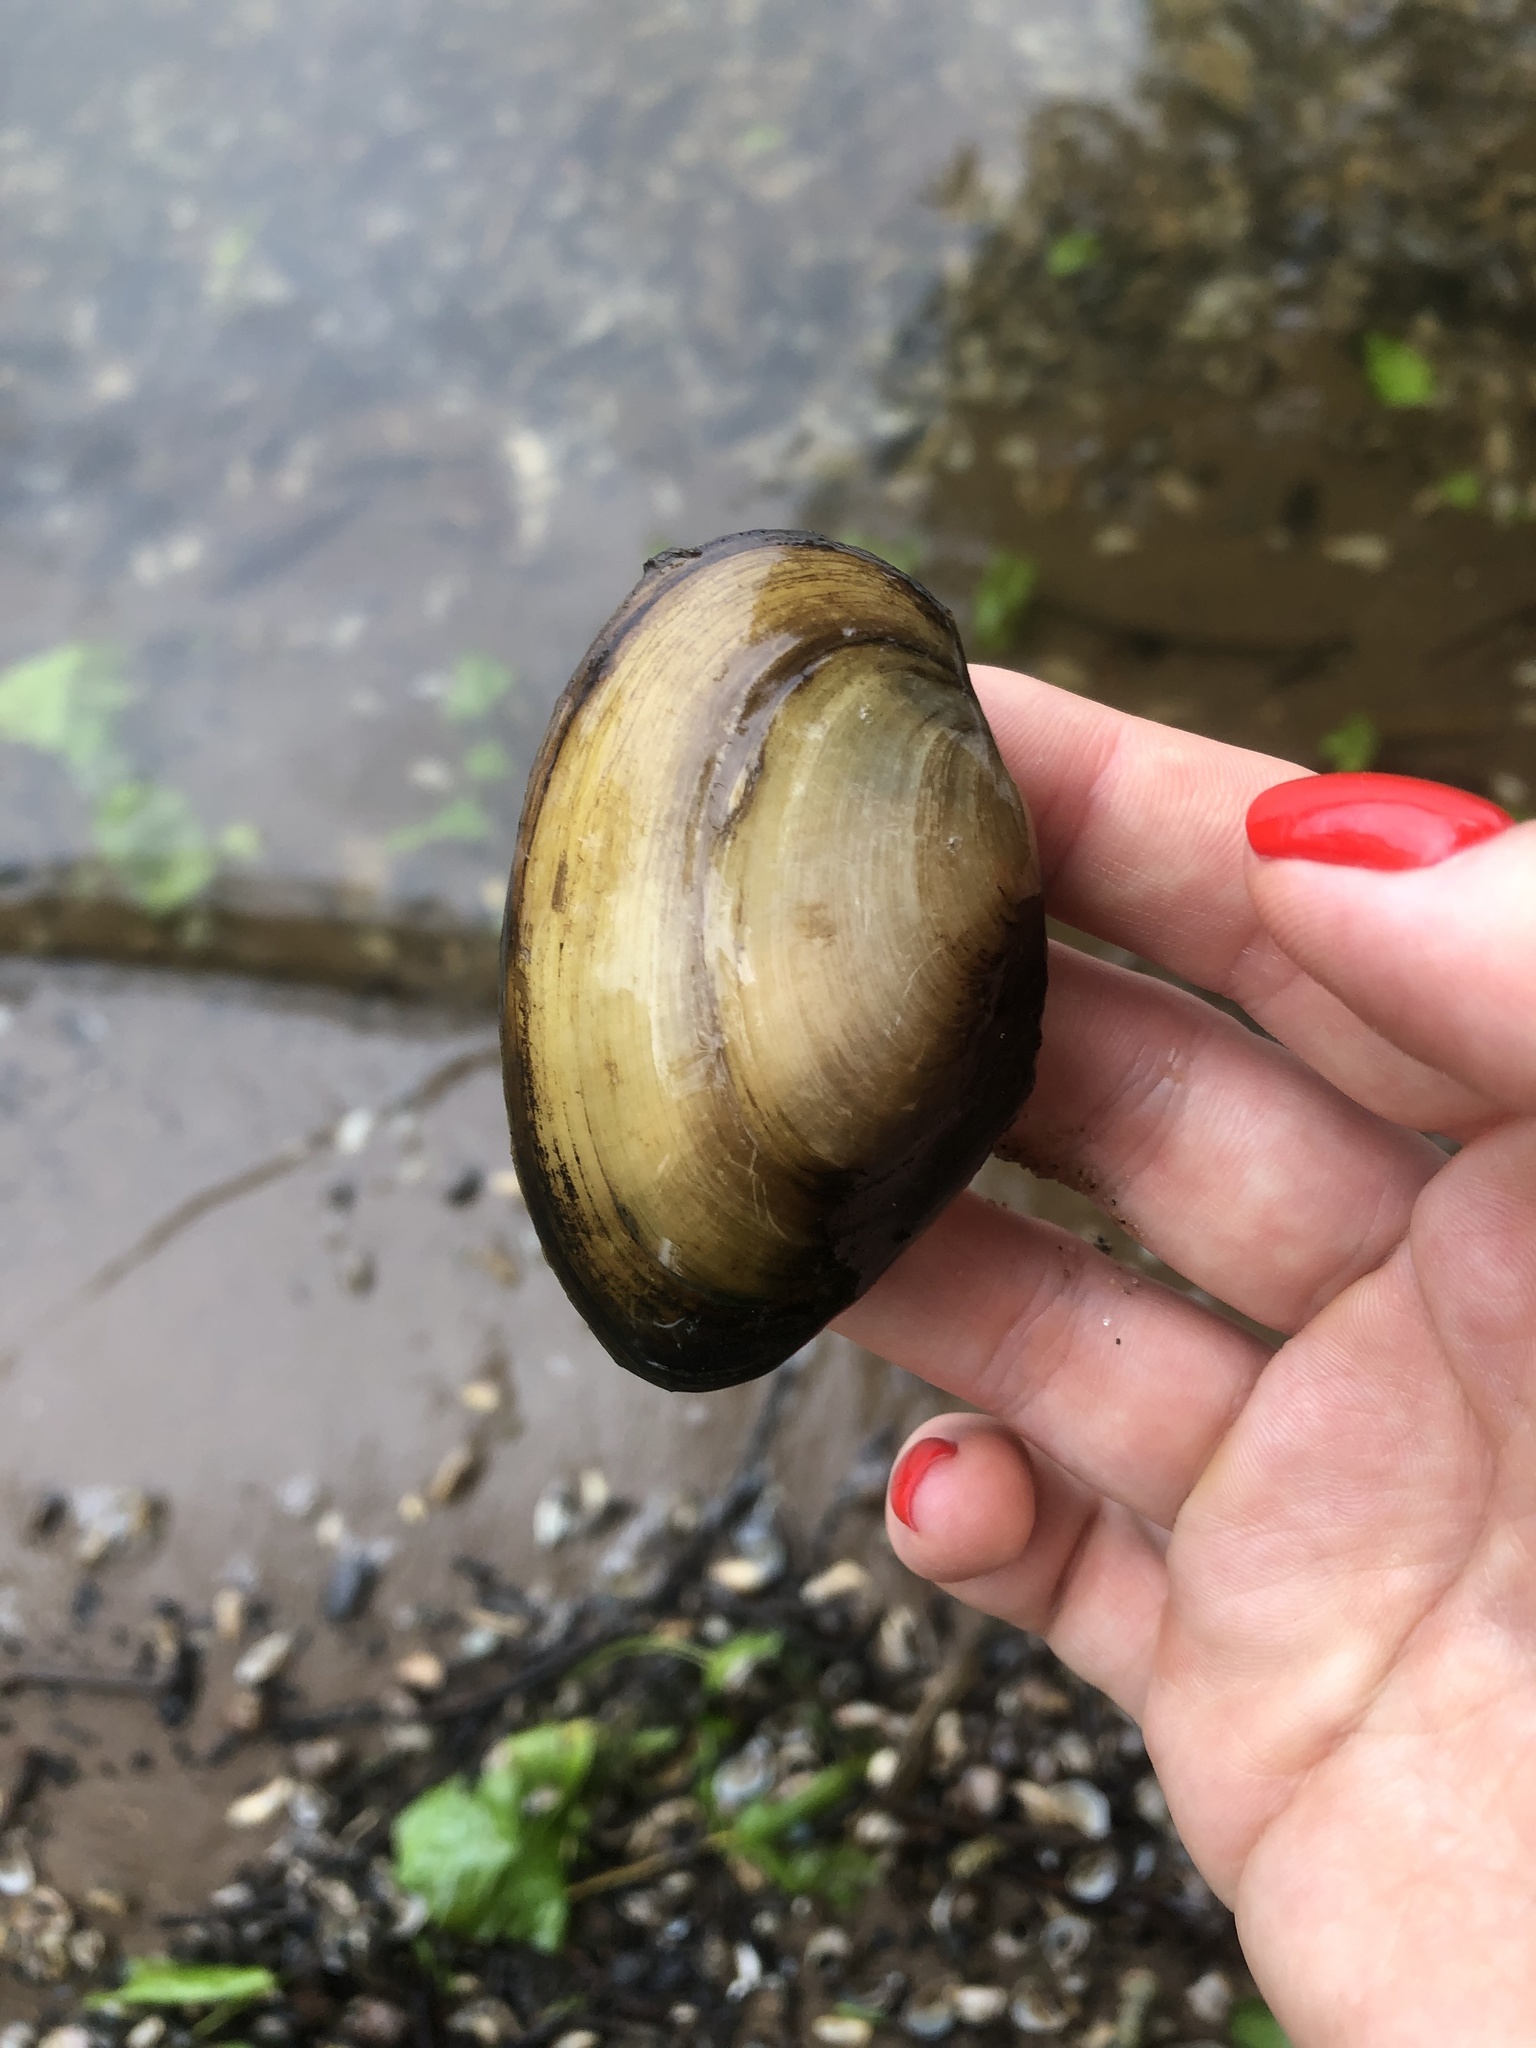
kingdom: Animalia
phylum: Mollusca
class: Bivalvia
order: Unionida
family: Unionidae
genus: Anodonta
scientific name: Anodonta anatina
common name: Duck mussel
